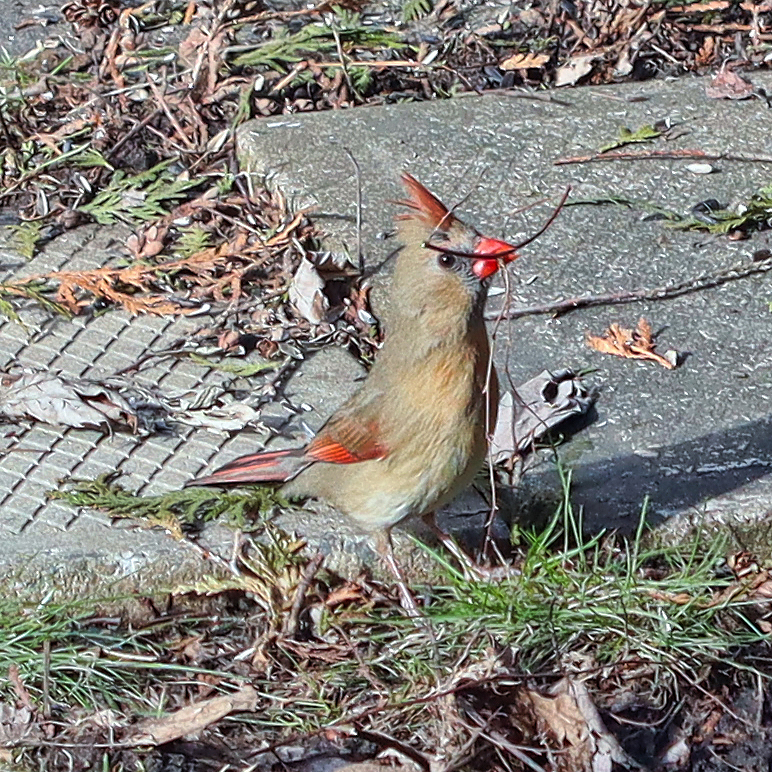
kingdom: Animalia
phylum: Chordata
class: Aves
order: Passeriformes
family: Cardinalidae
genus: Cardinalis
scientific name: Cardinalis cardinalis
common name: Northern cardinal
